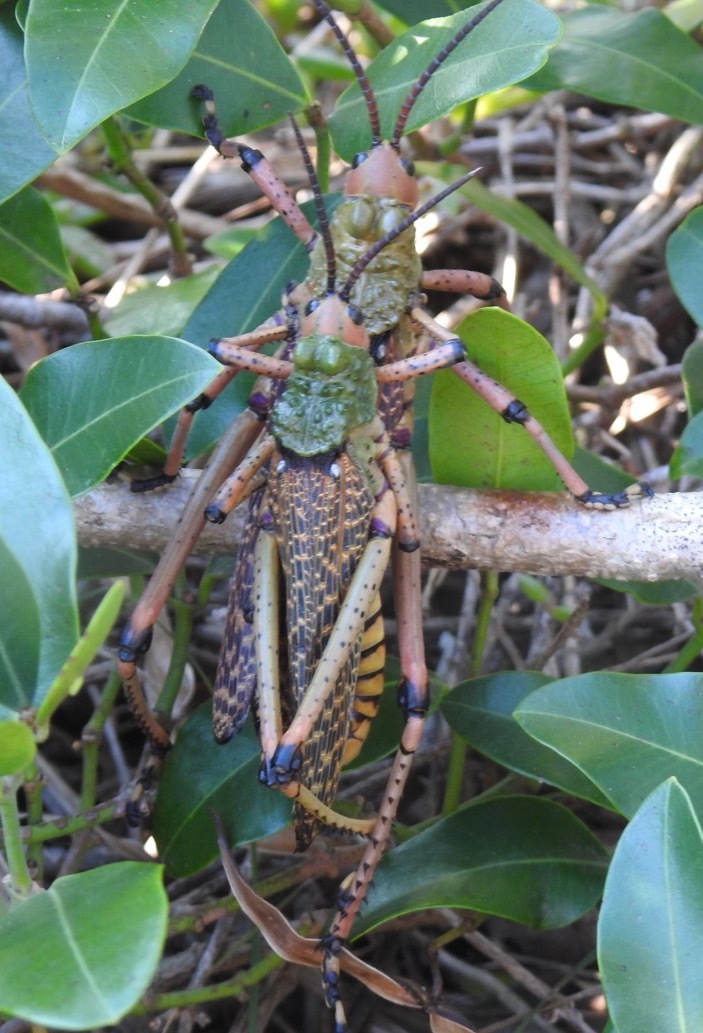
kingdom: Animalia
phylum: Arthropoda
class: Insecta
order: Orthoptera
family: Pyrgomorphidae
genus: Phymateus
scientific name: Phymateus leprosus
